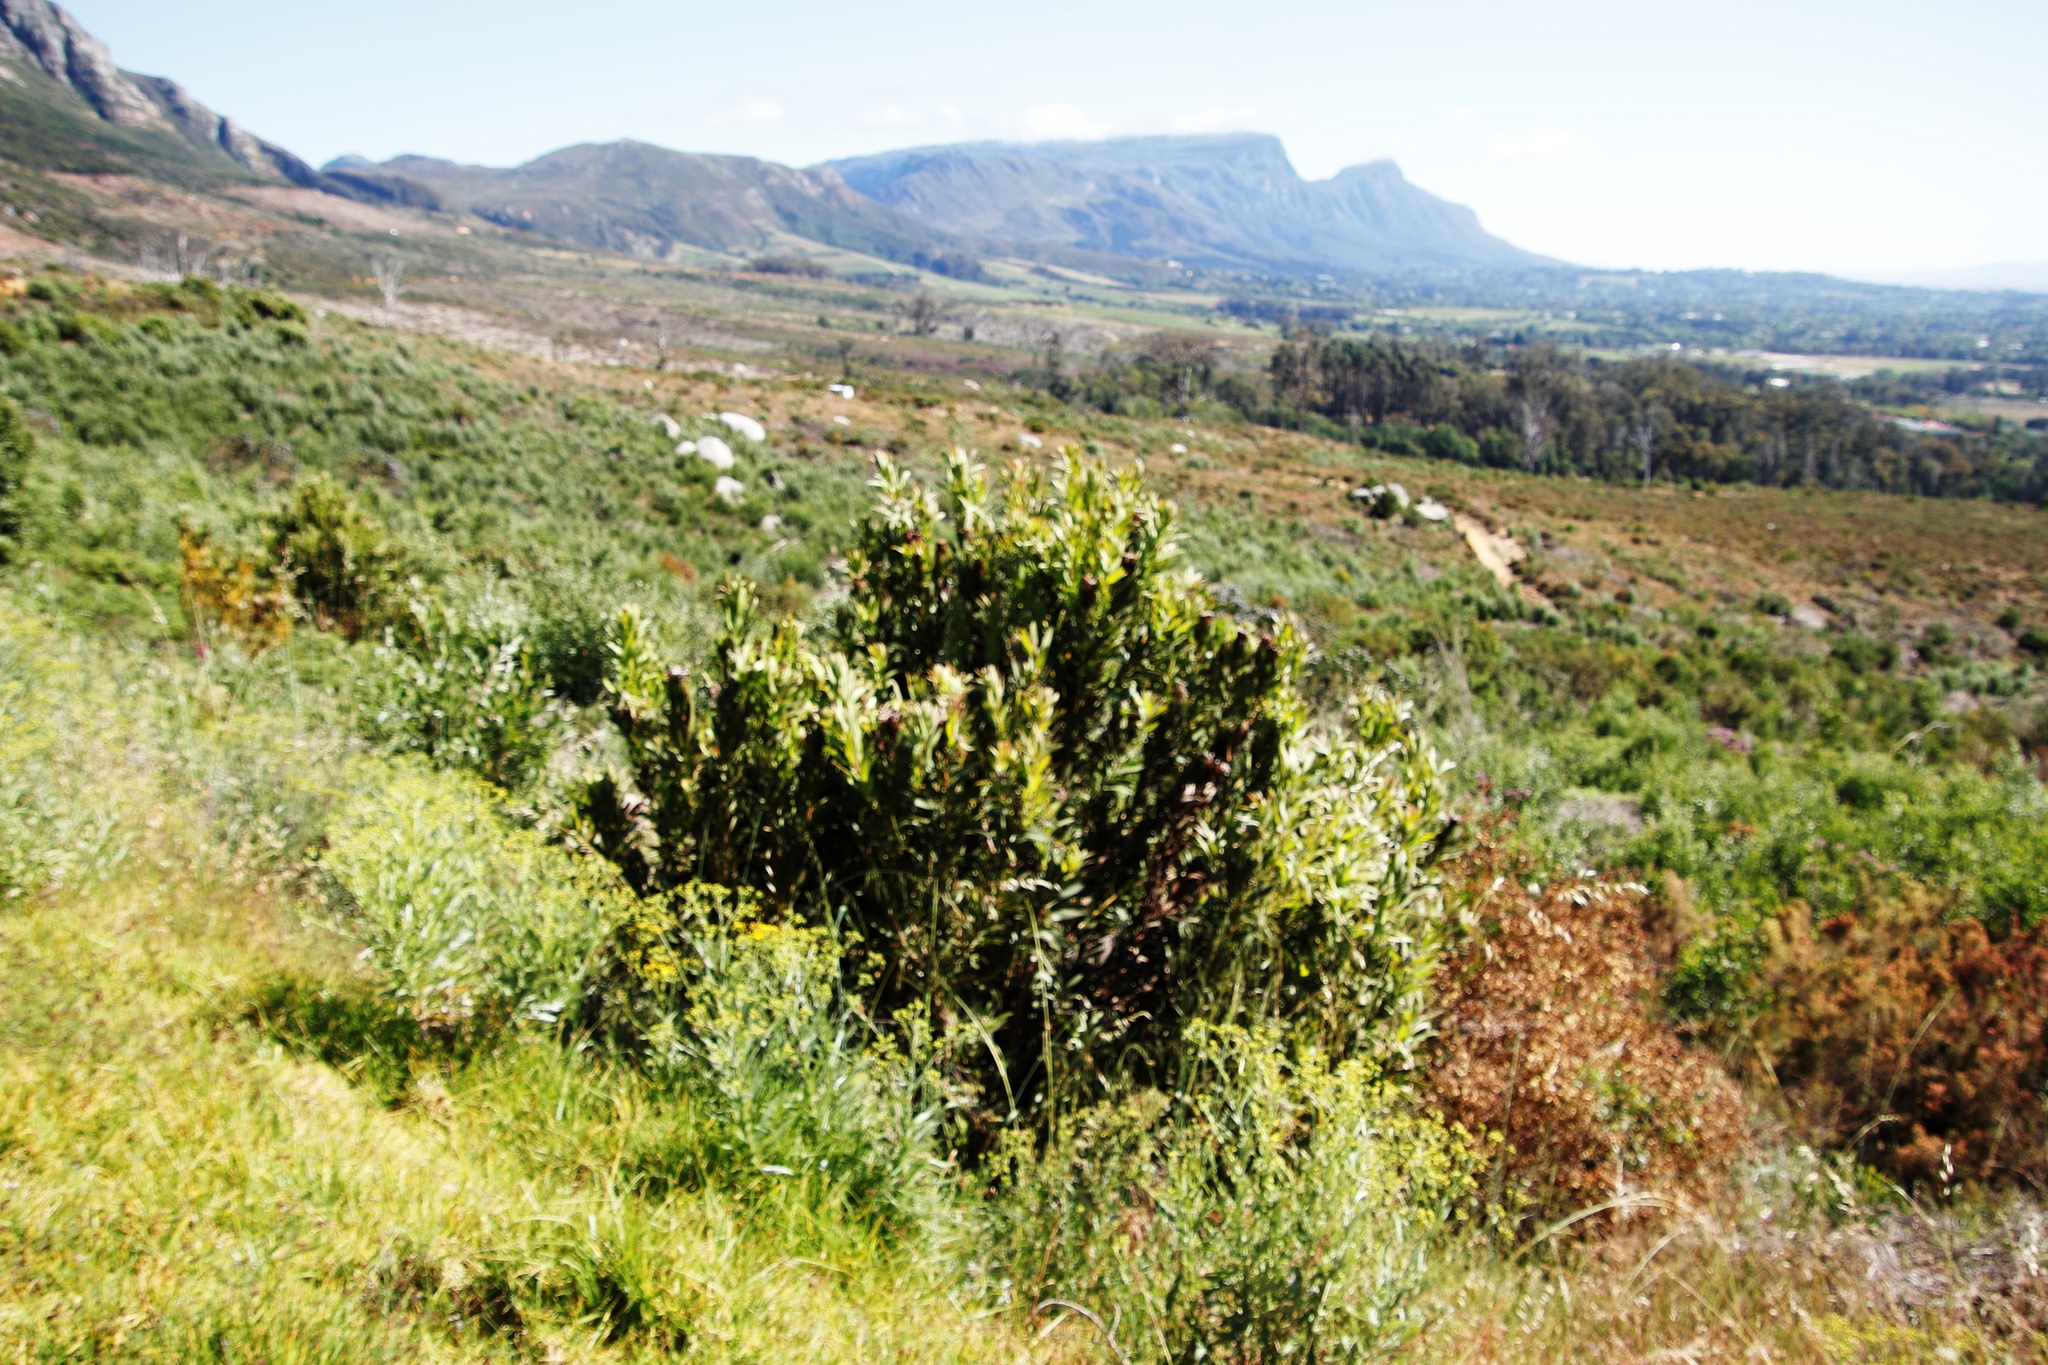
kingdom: Plantae
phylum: Tracheophyta
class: Magnoliopsida
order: Proteales
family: Proteaceae
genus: Protea
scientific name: Protea lepidocarpodendron
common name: Black-bearded protea
